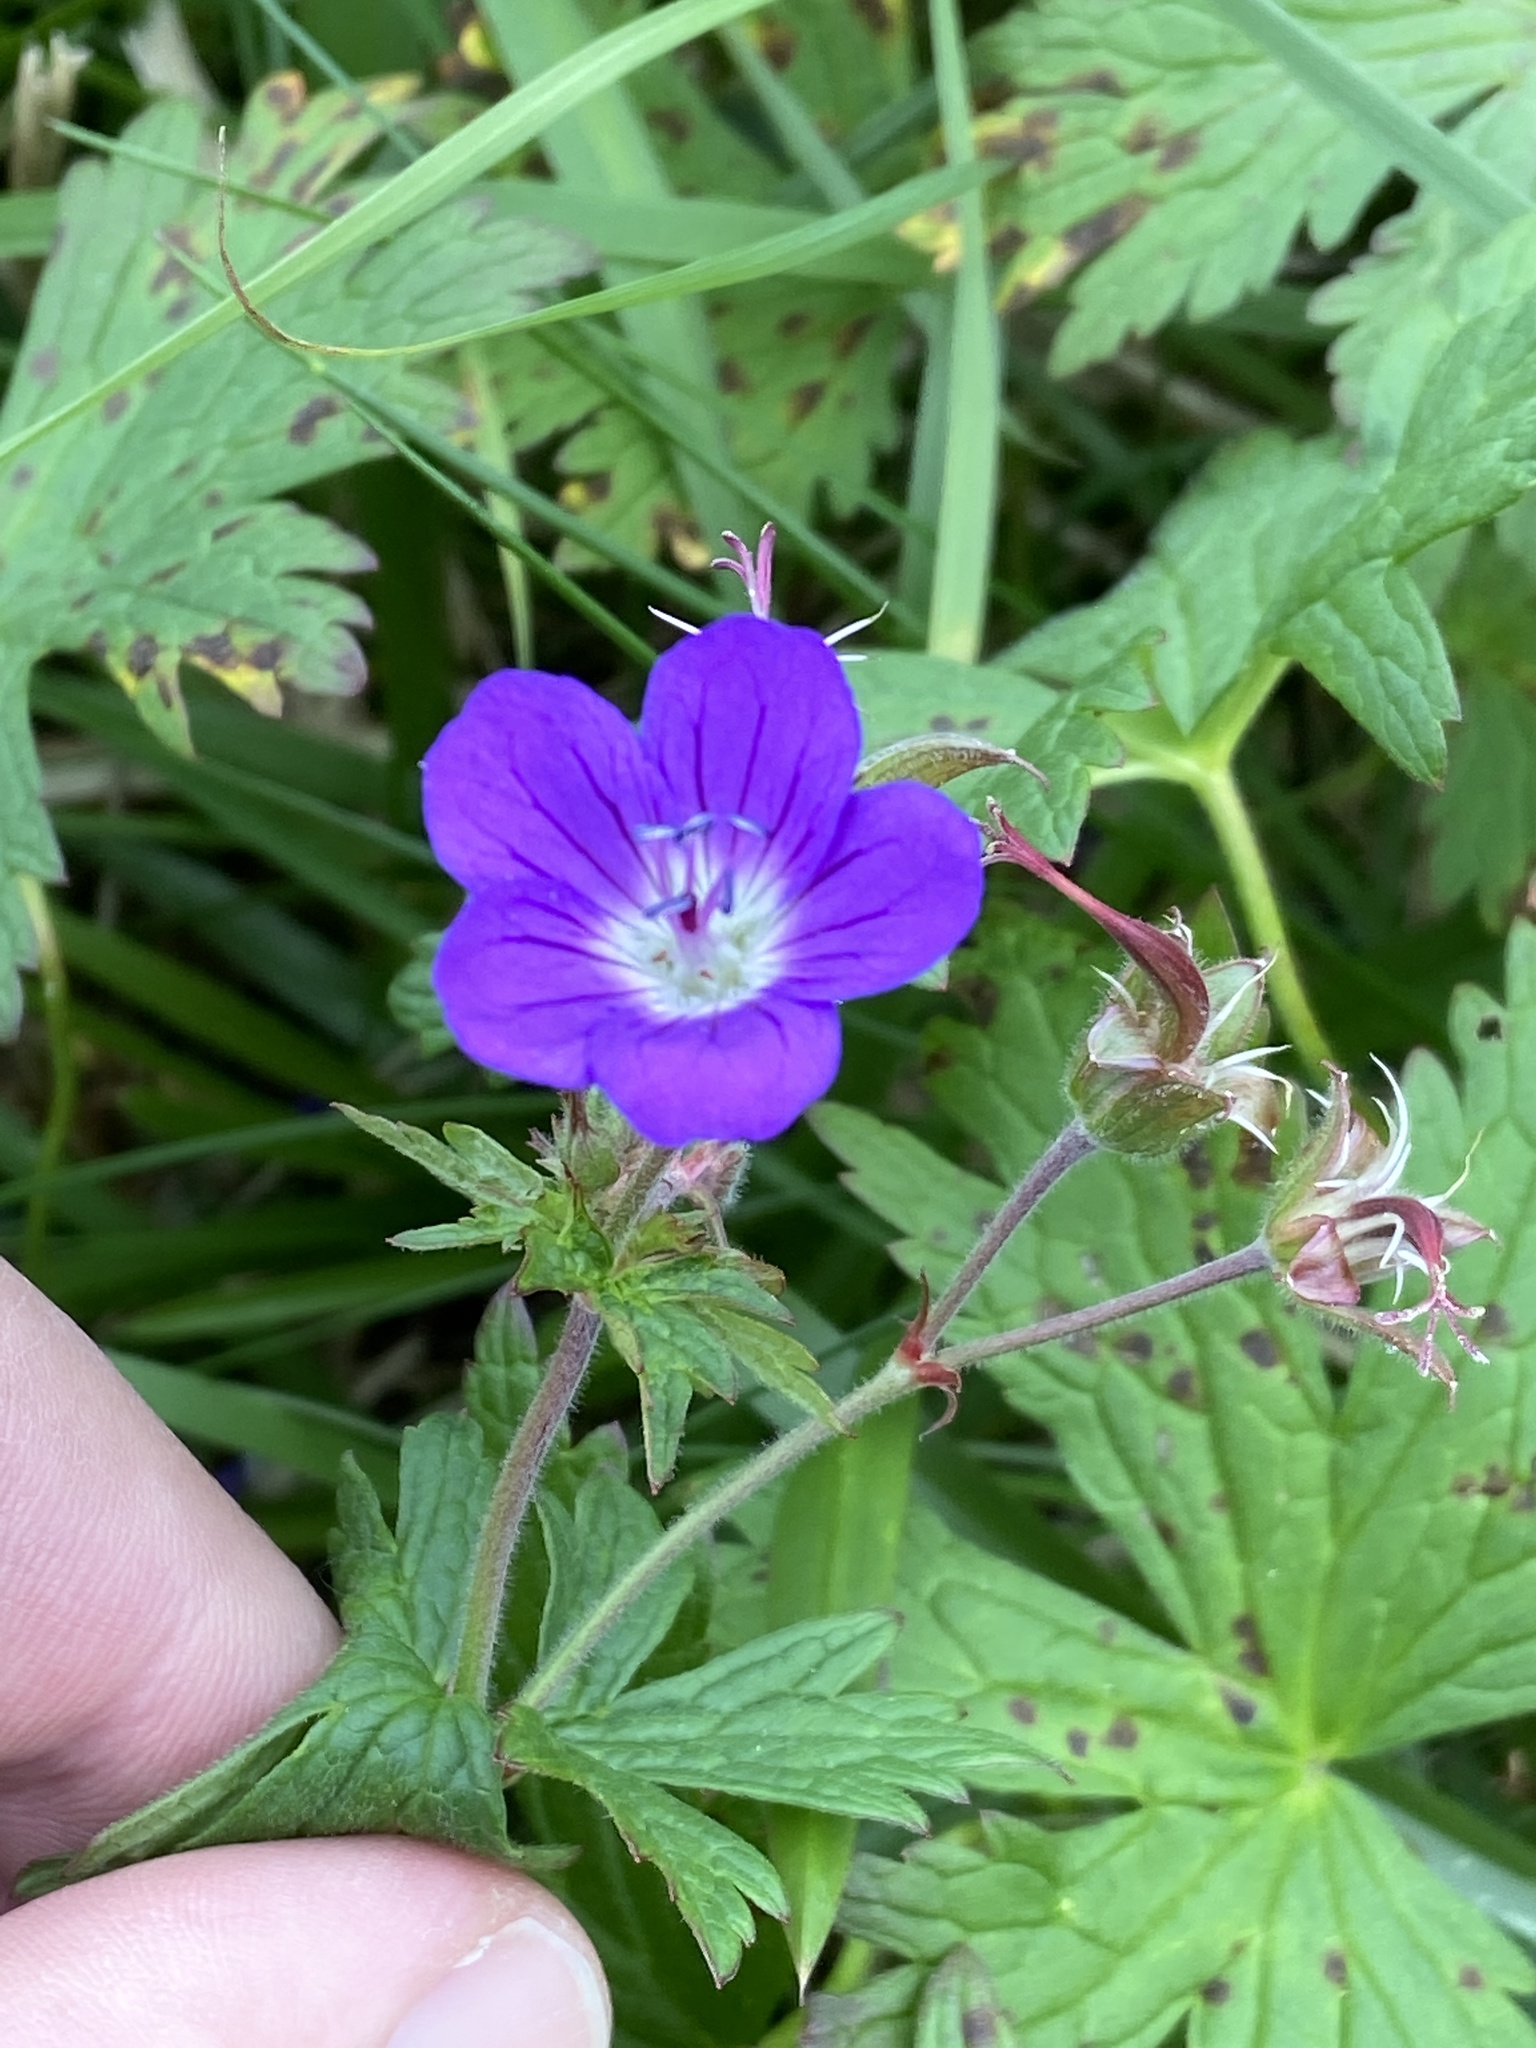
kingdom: Plantae
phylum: Tracheophyta
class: Magnoliopsida
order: Geraniales
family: Geraniaceae
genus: Geranium
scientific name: Geranium sylvaticum
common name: Wood crane's-bill
